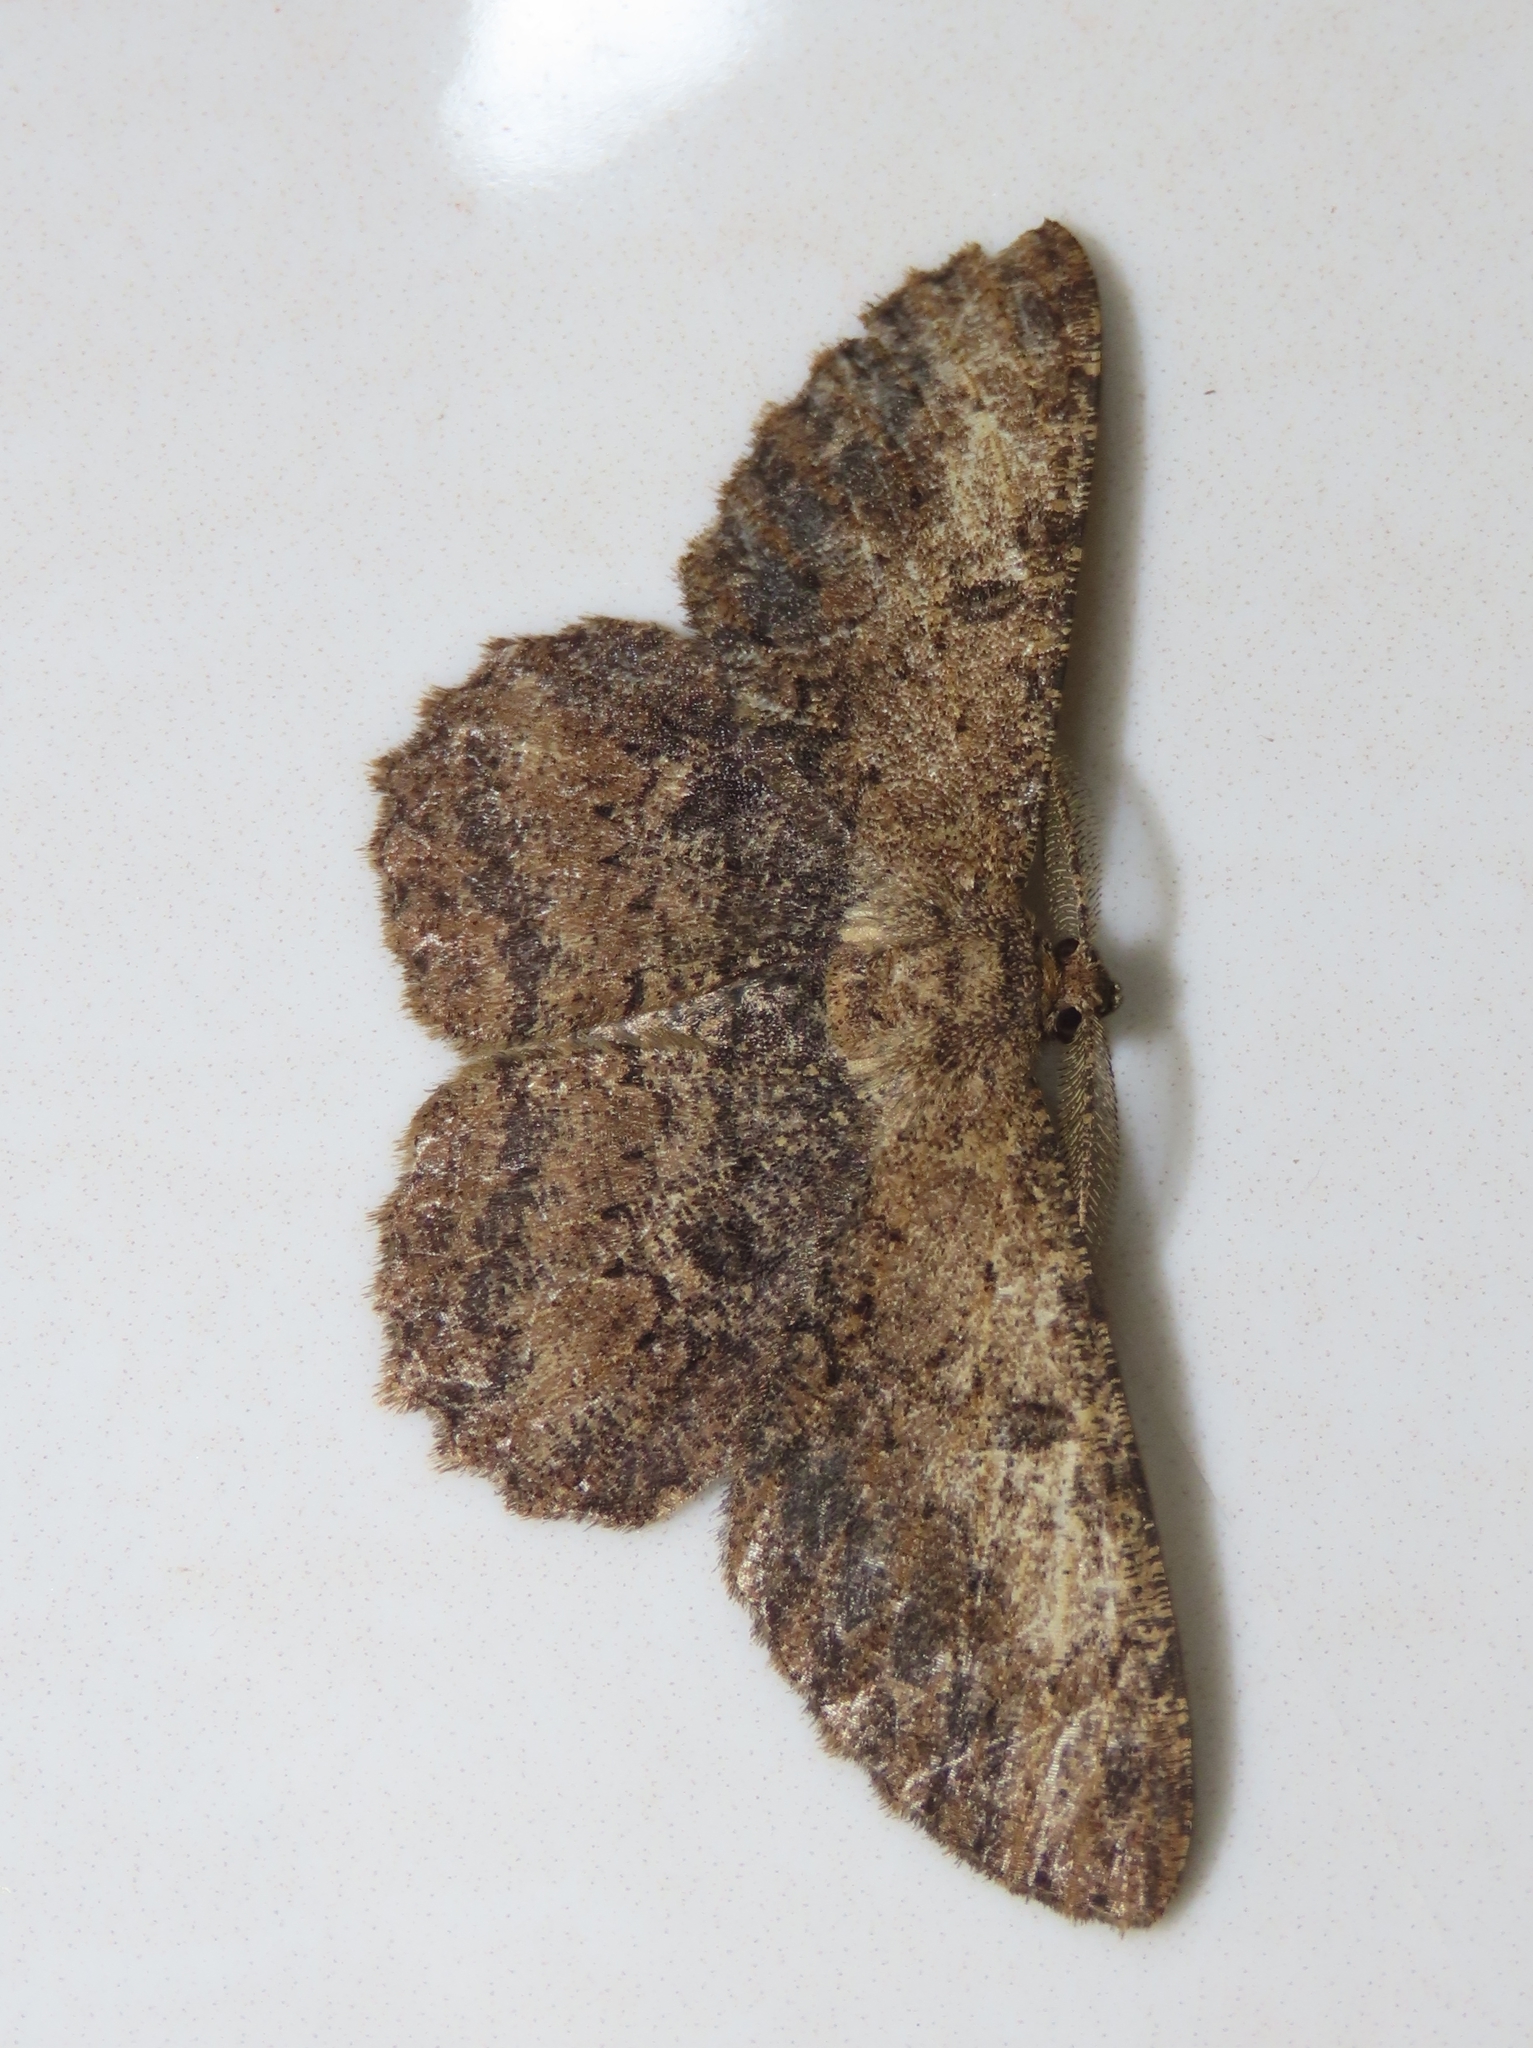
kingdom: Animalia
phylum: Arthropoda
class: Insecta
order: Lepidoptera
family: Geometridae
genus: Hypomecis
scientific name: Hypomecis separata
